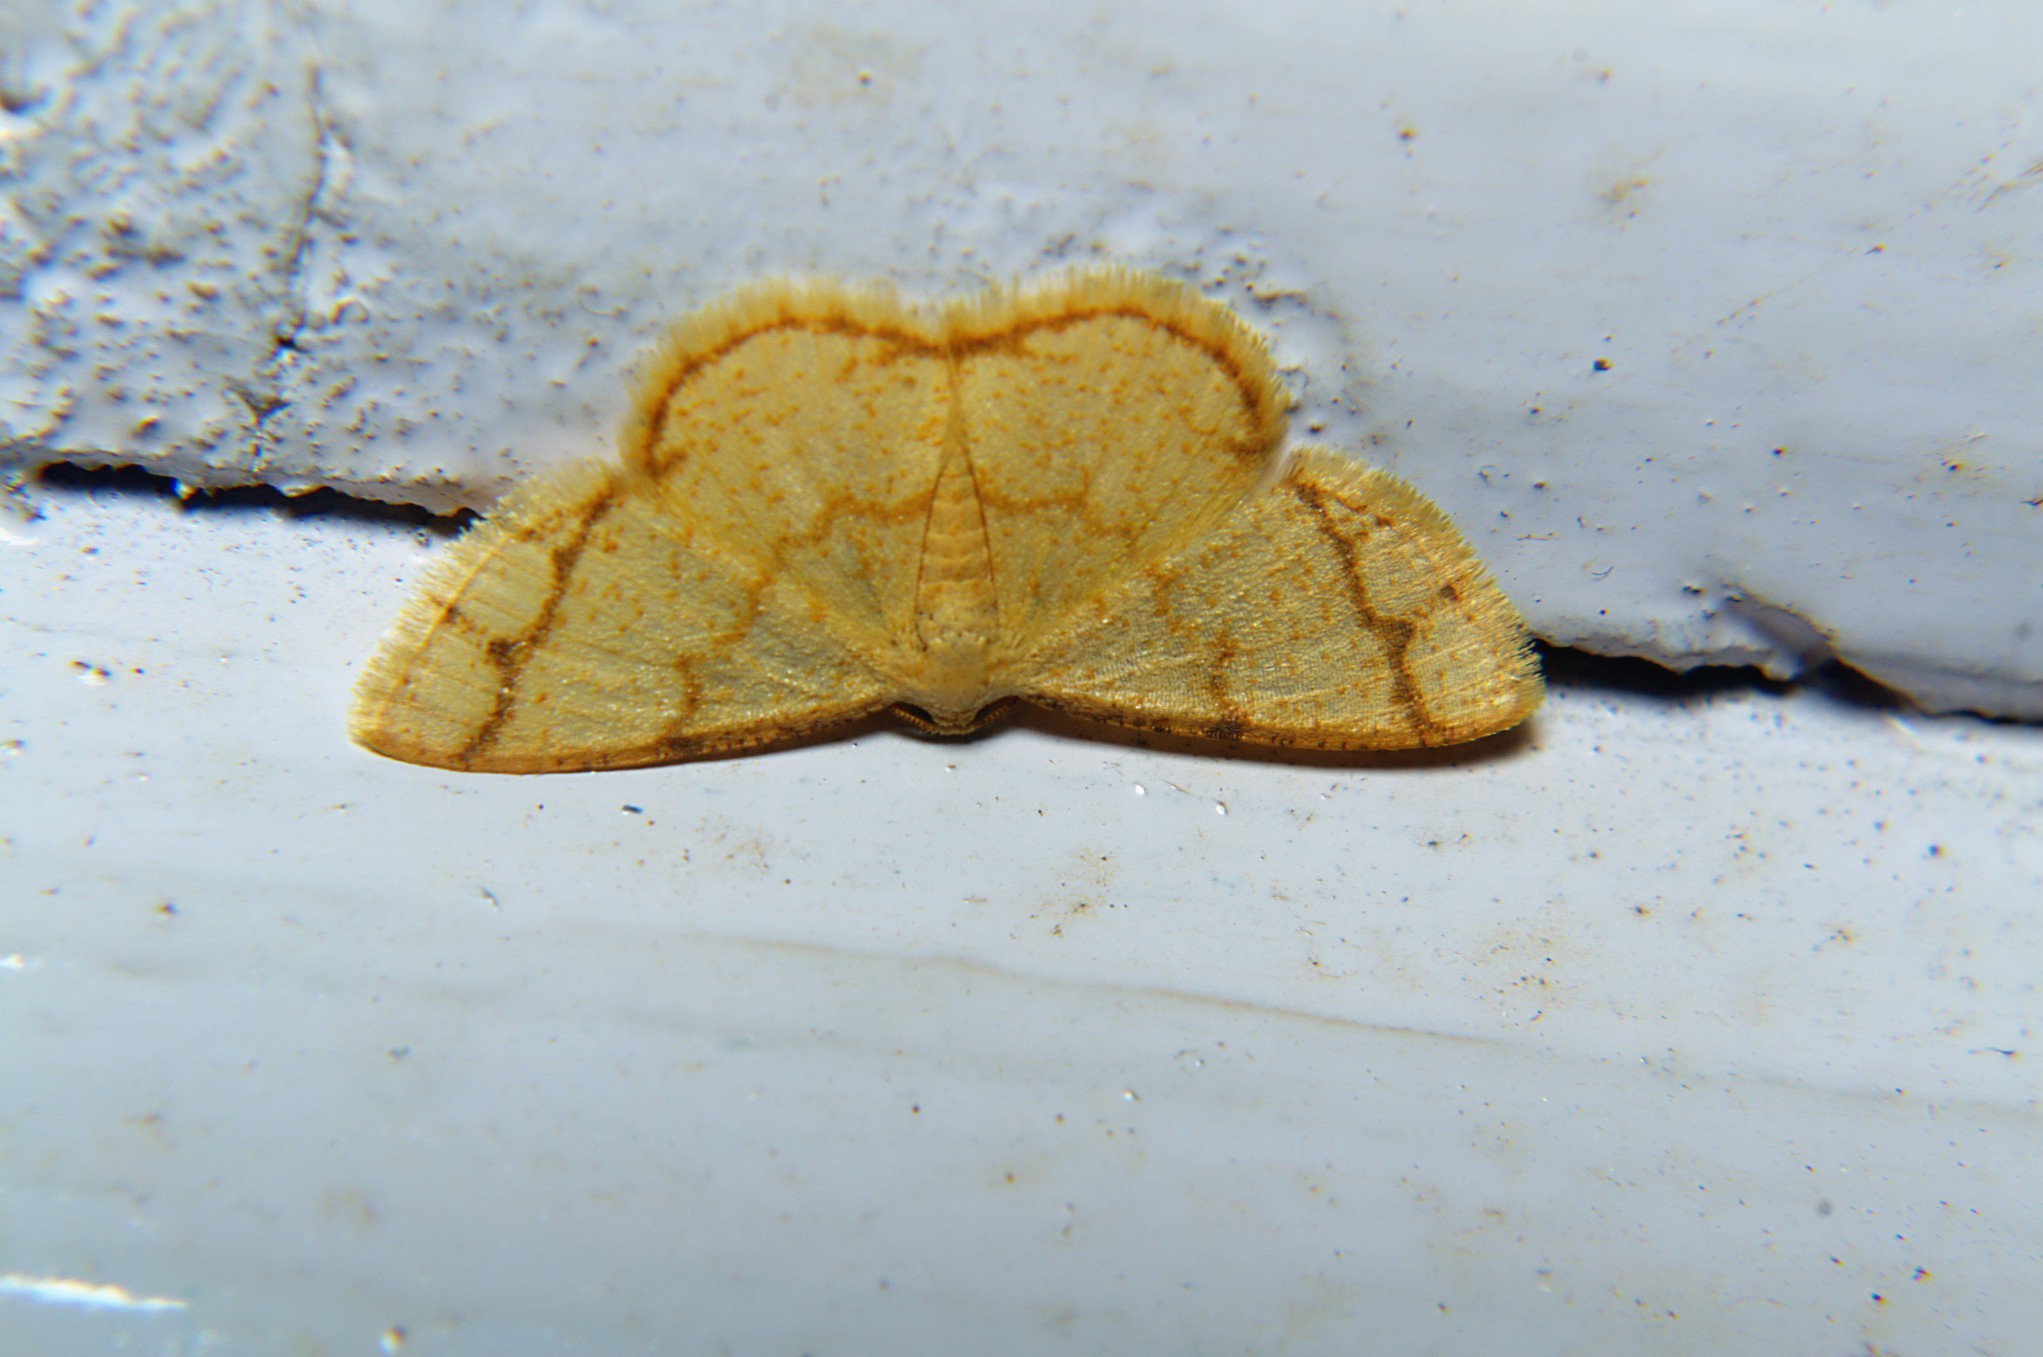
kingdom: Animalia
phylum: Arthropoda
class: Insecta
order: Lepidoptera
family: Geometridae
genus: Heterostegane
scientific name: Heterostegane lala
